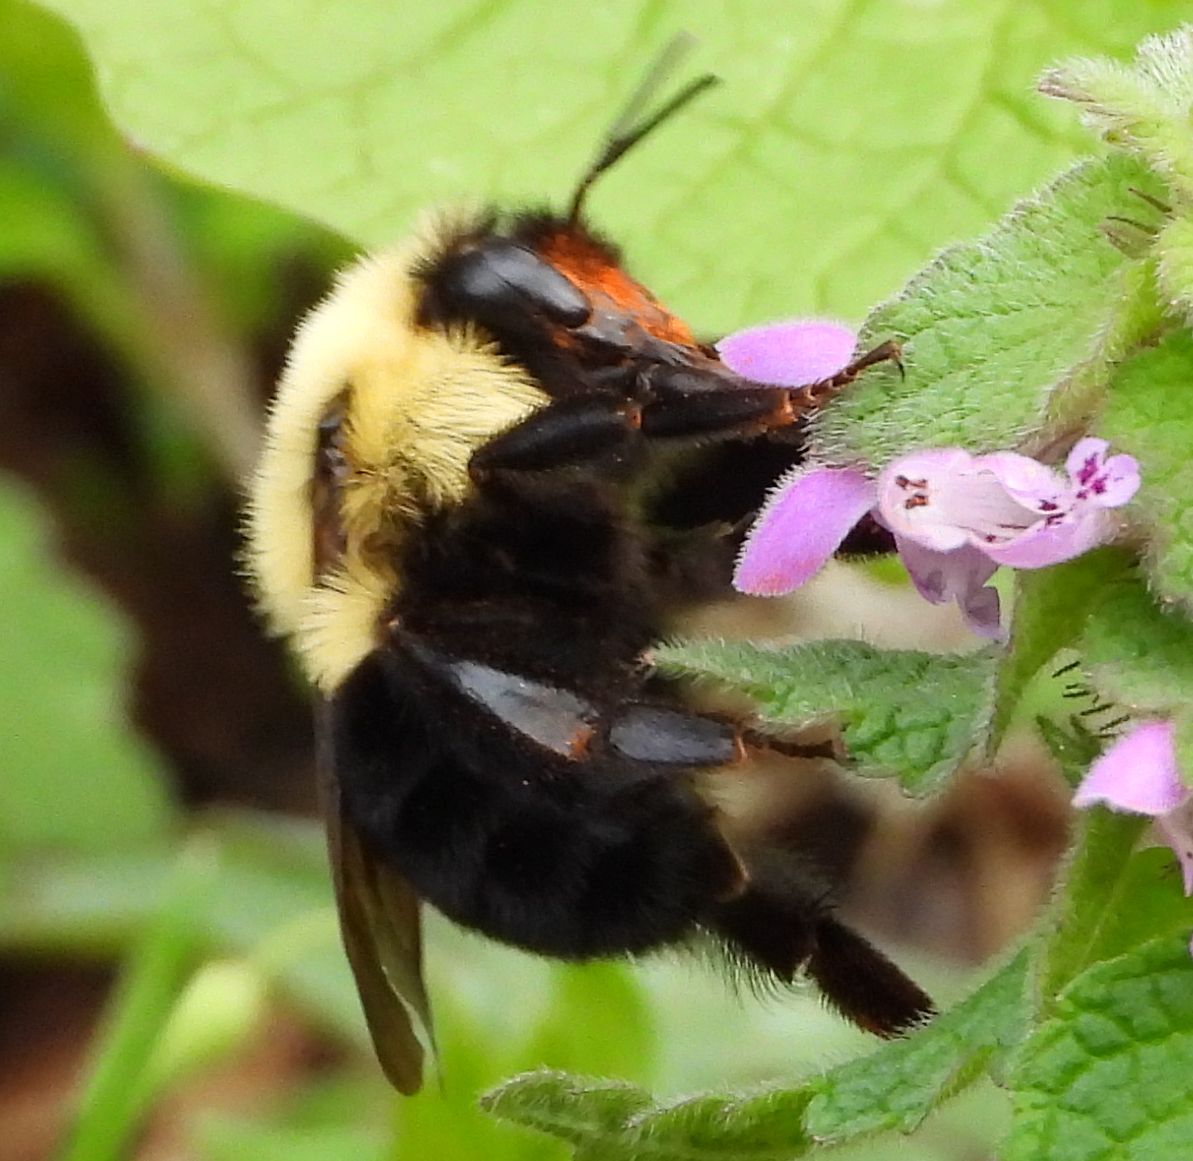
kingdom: Animalia
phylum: Arthropoda
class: Insecta
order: Hymenoptera
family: Apidae
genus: Bombus
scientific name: Bombus bimaculatus
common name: Two-spotted bumble bee
